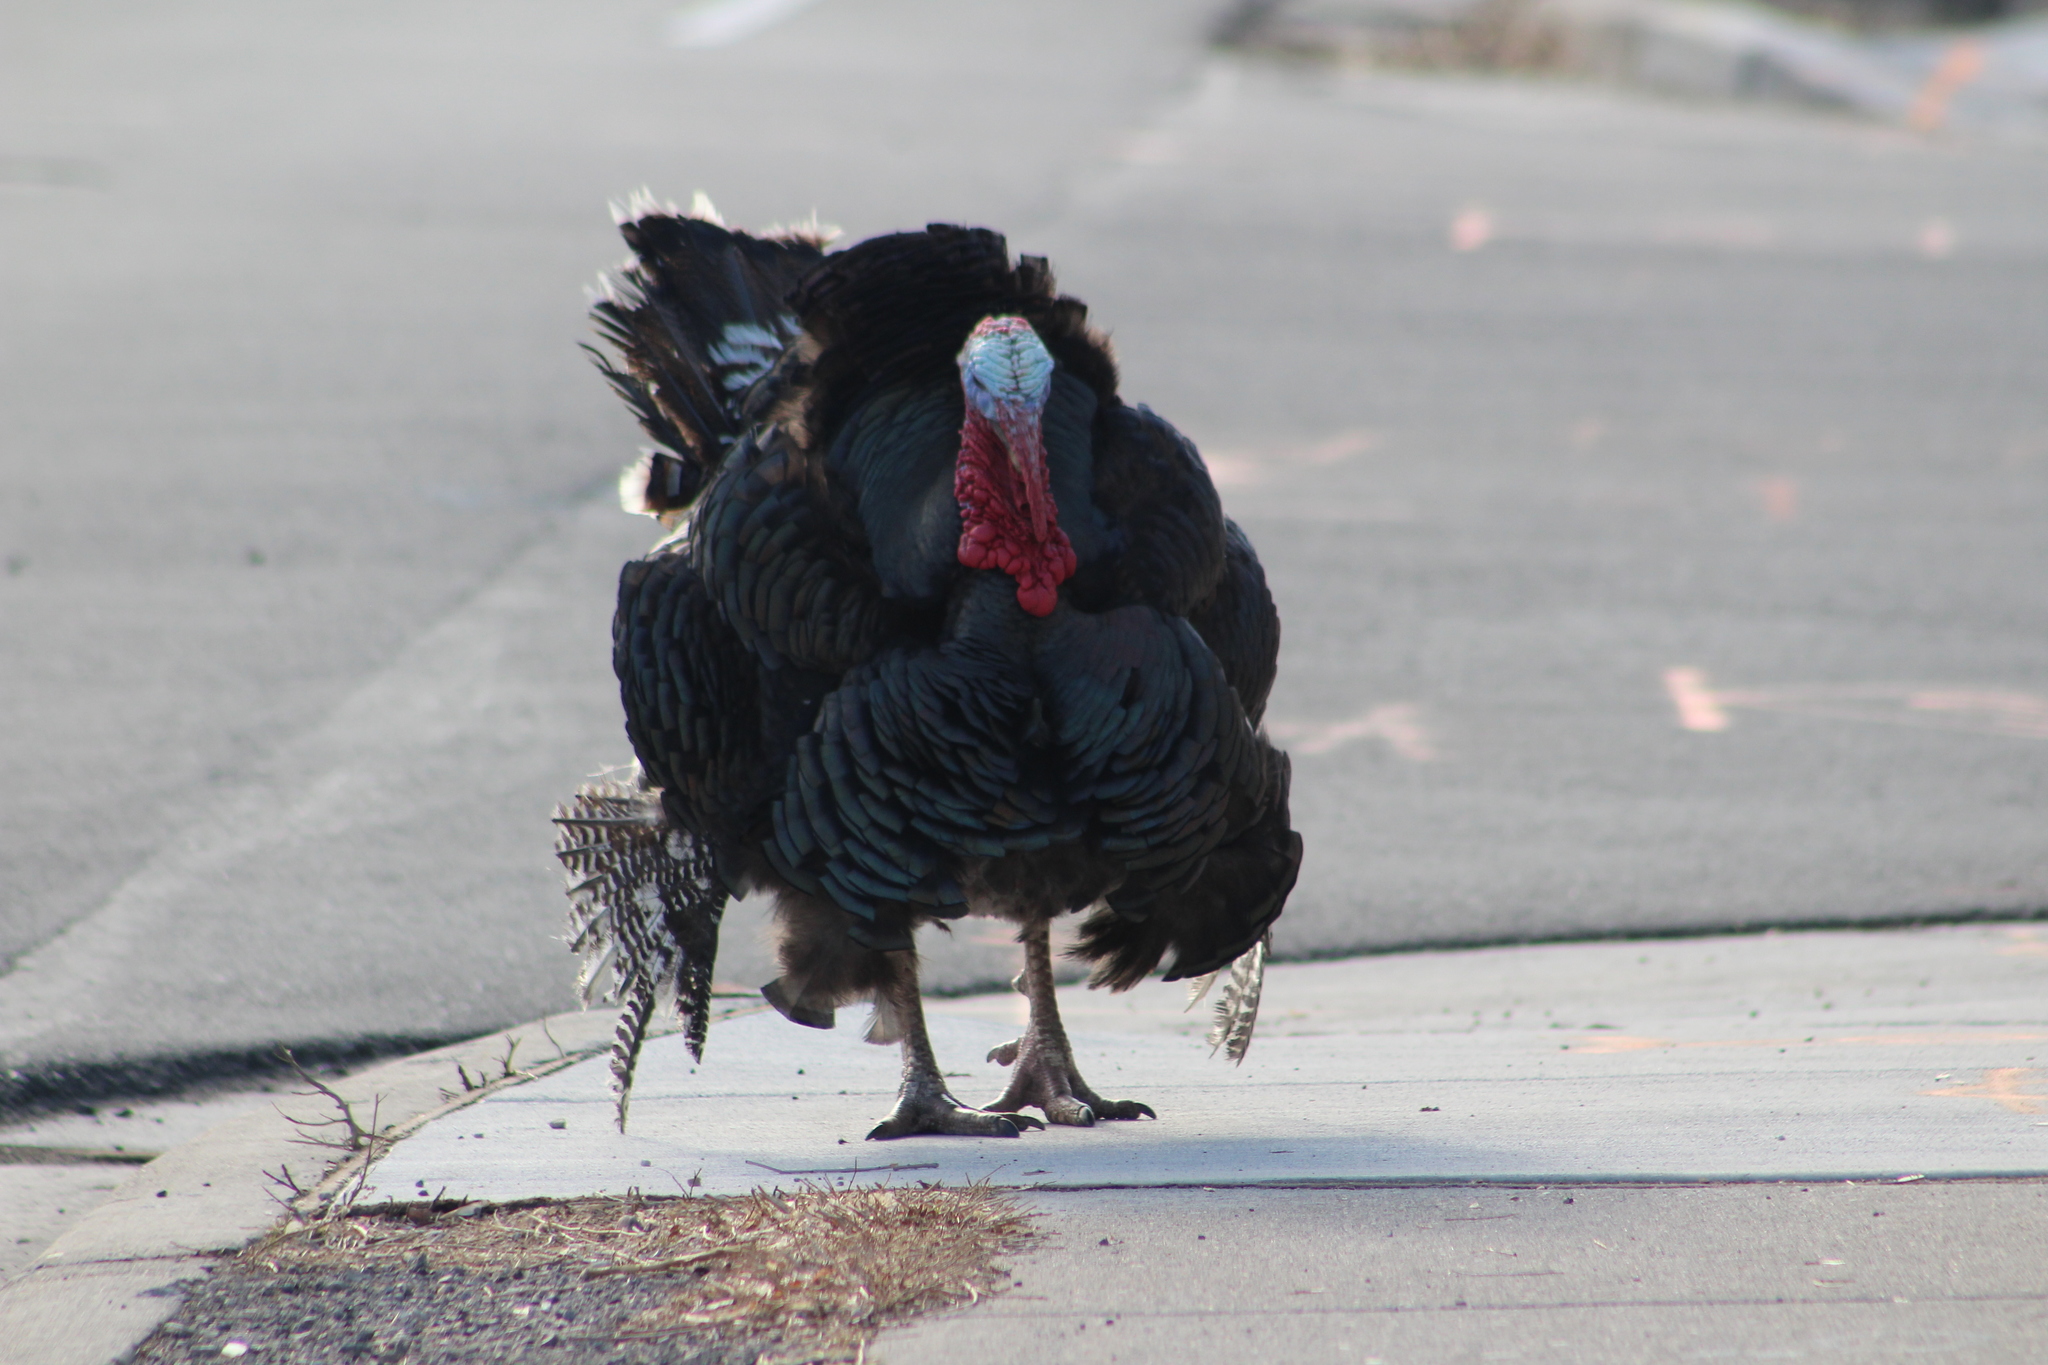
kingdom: Animalia
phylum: Chordata
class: Aves
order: Galliformes
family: Phasianidae
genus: Meleagris
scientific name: Meleagris gallopavo
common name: Wild turkey
